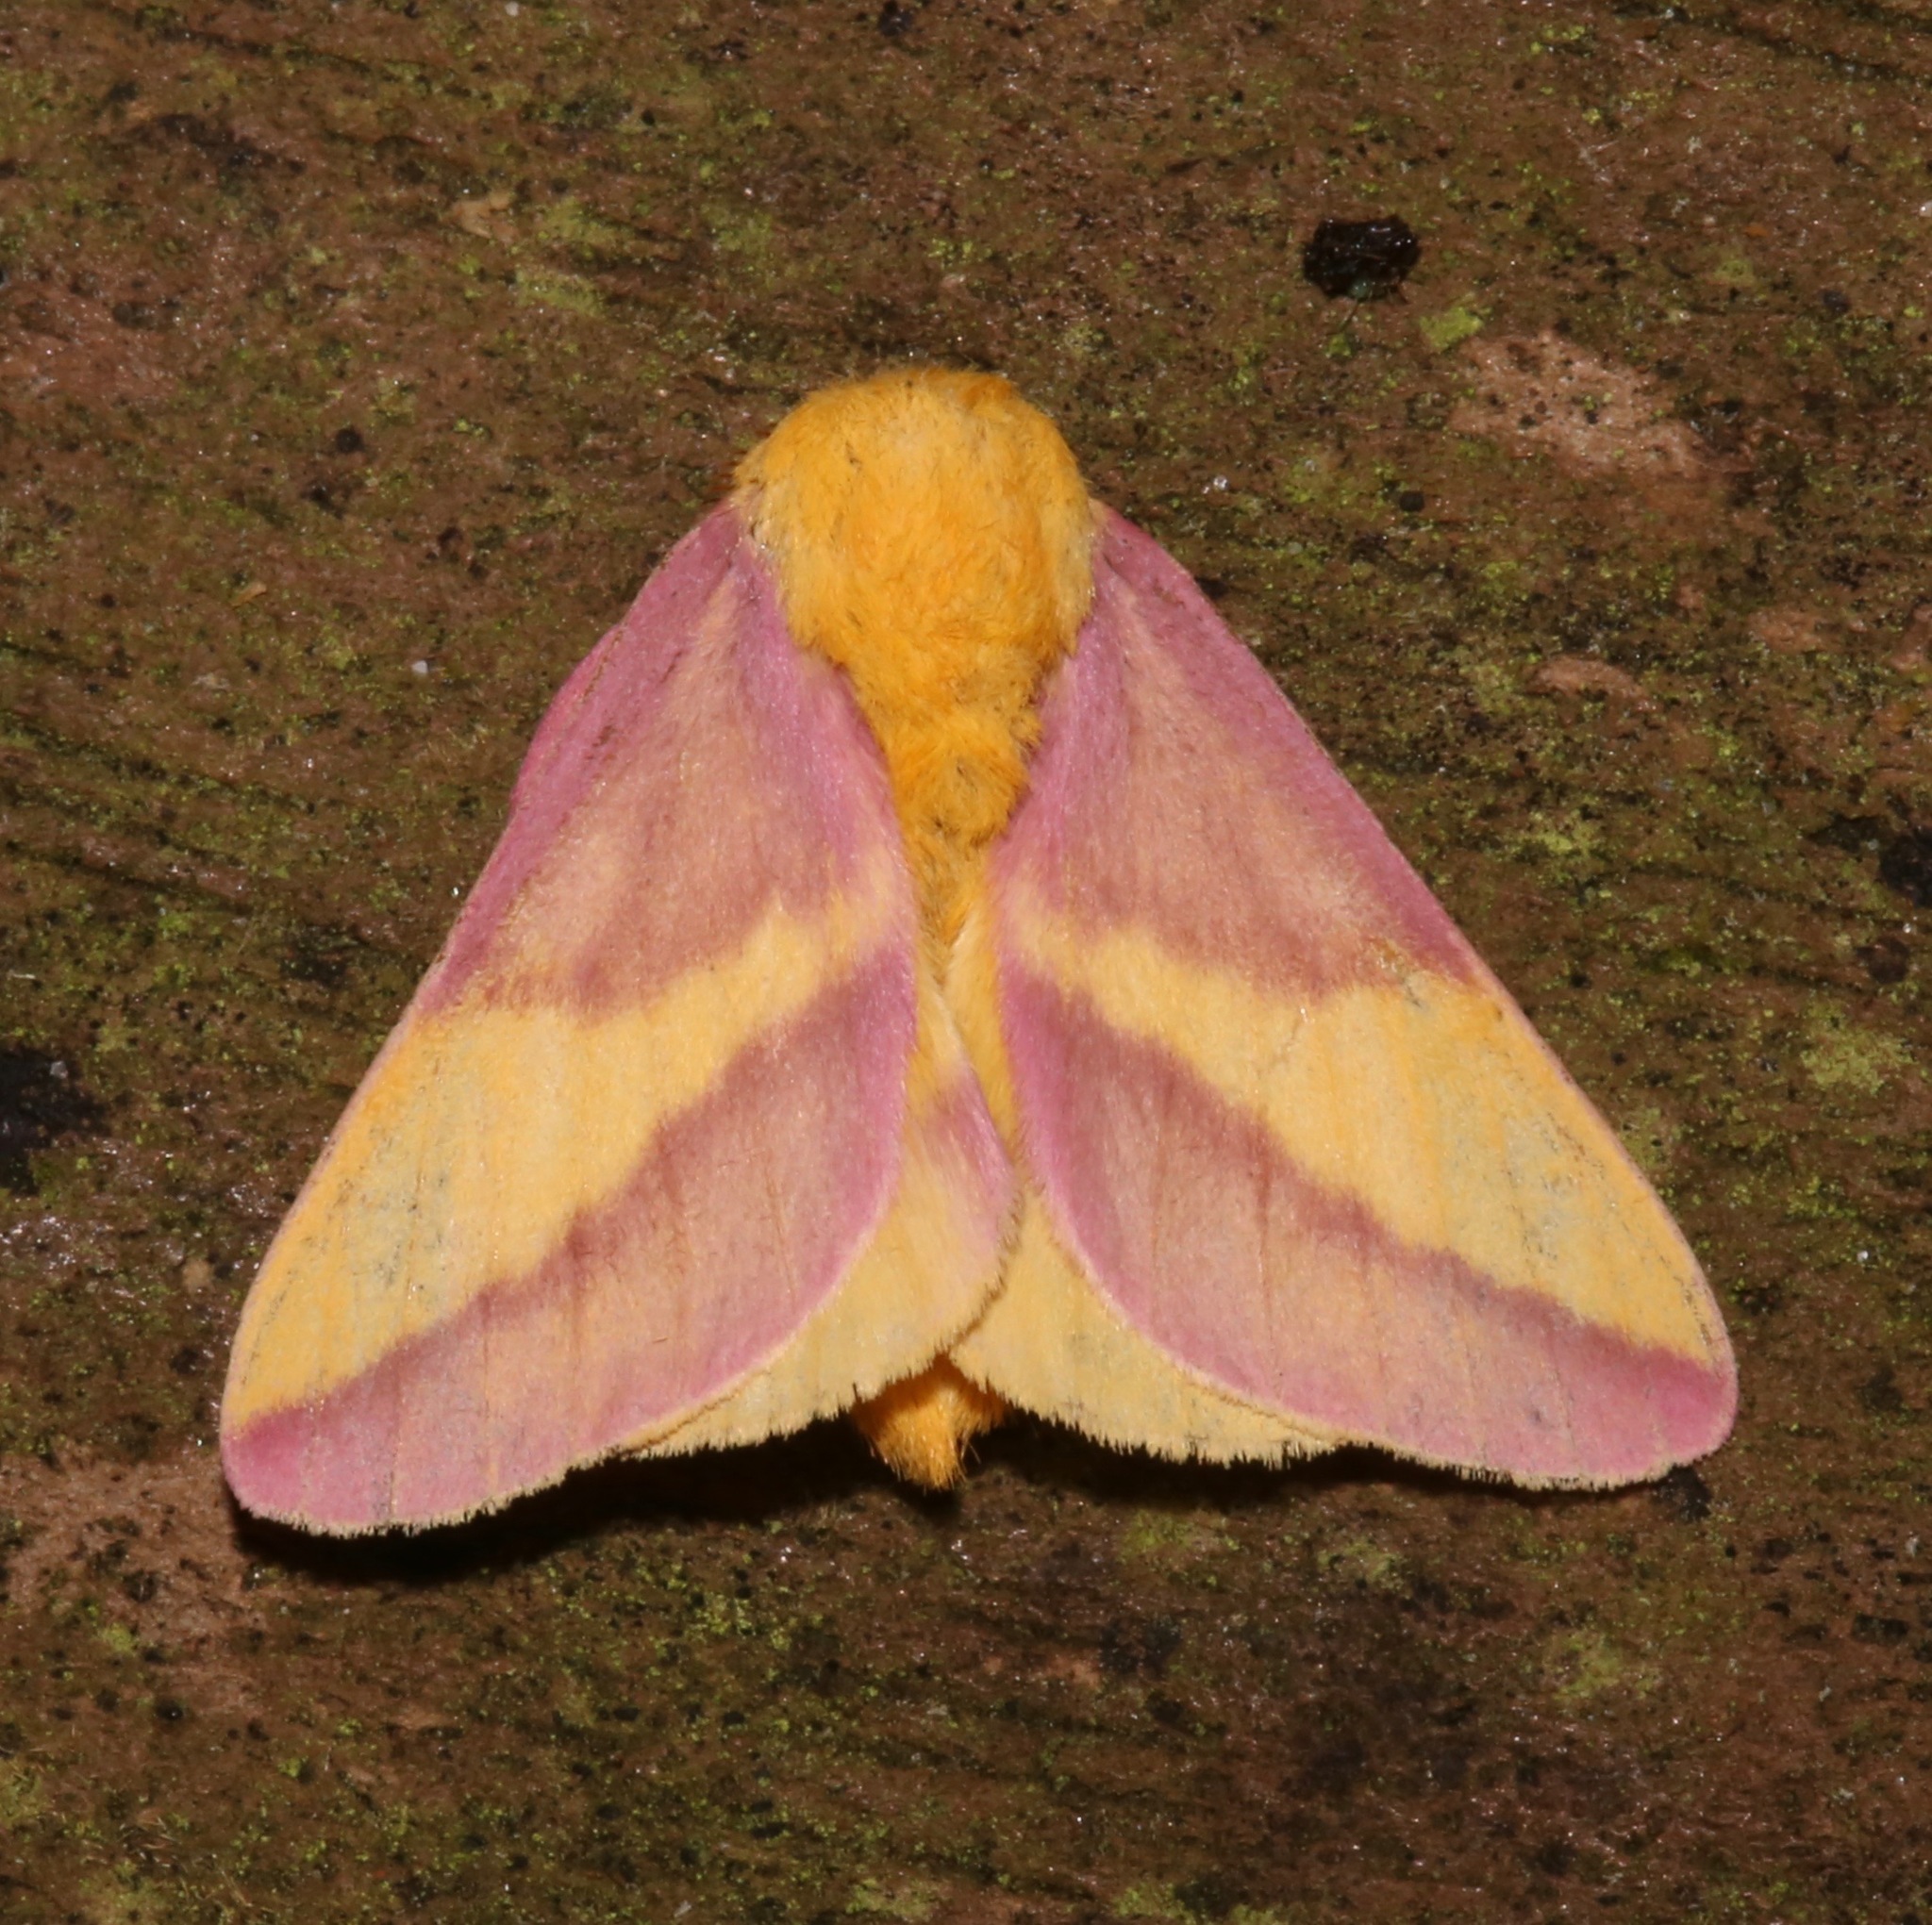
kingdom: Animalia
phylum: Arthropoda
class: Insecta
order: Lepidoptera
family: Saturniidae
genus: Dryocampa
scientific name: Dryocampa rubicunda
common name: Rosy maple moth
